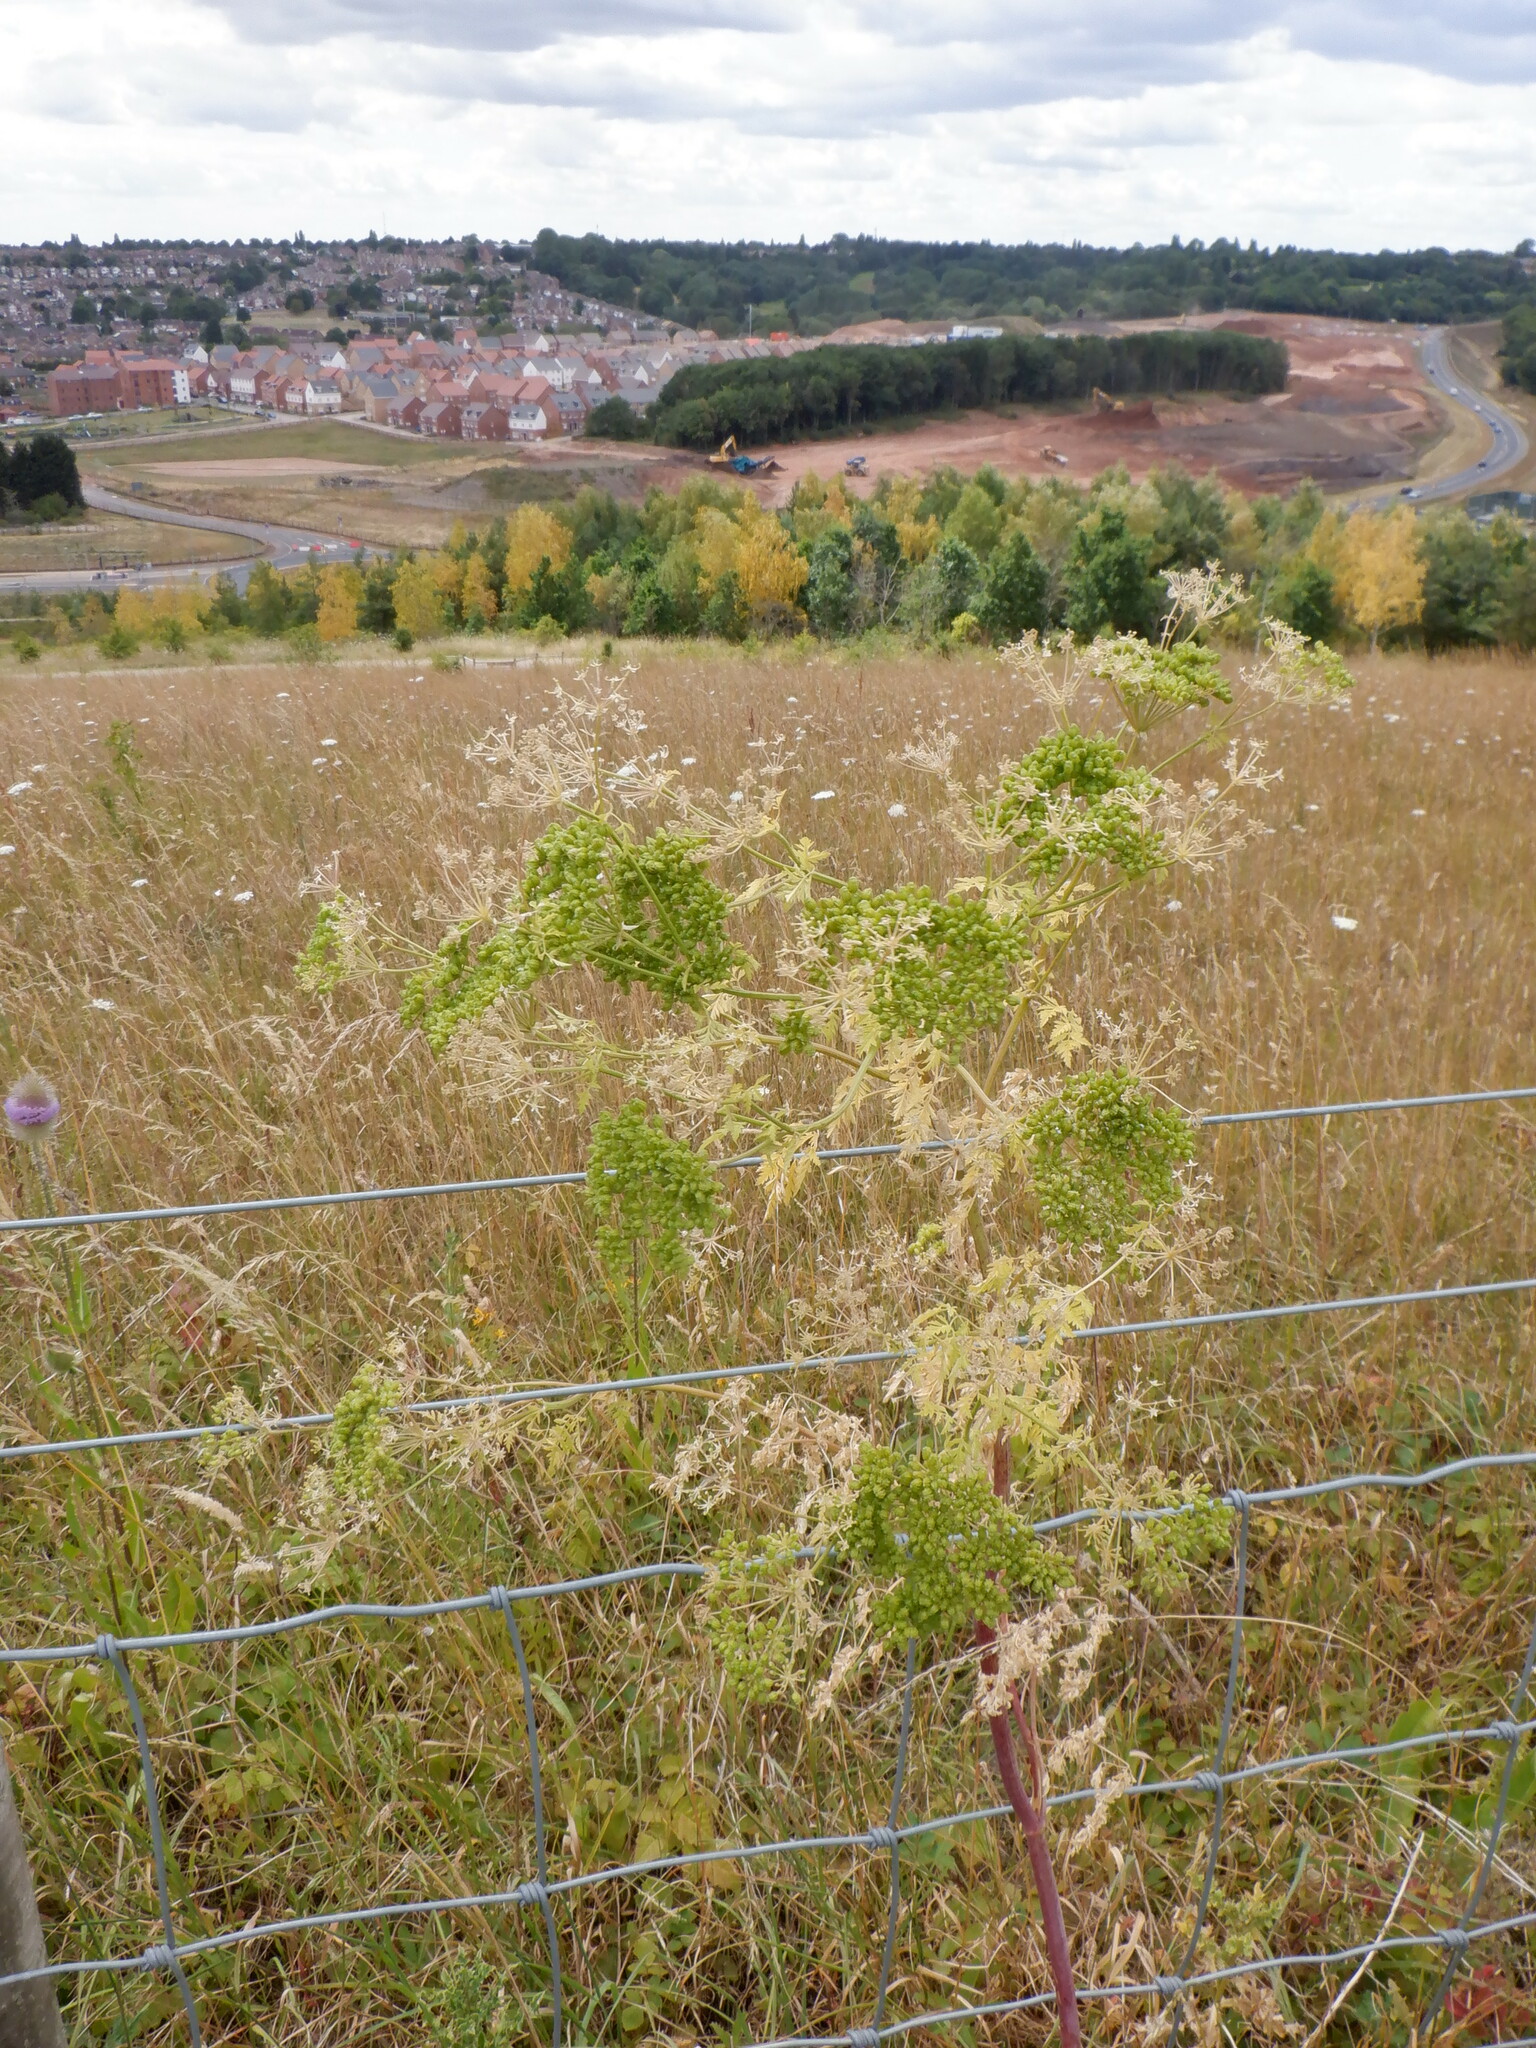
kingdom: Plantae
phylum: Tracheophyta
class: Magnoliopsida
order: Apiales
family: Apiaceae
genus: Conium
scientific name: Conium maculatum
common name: Hemlock
